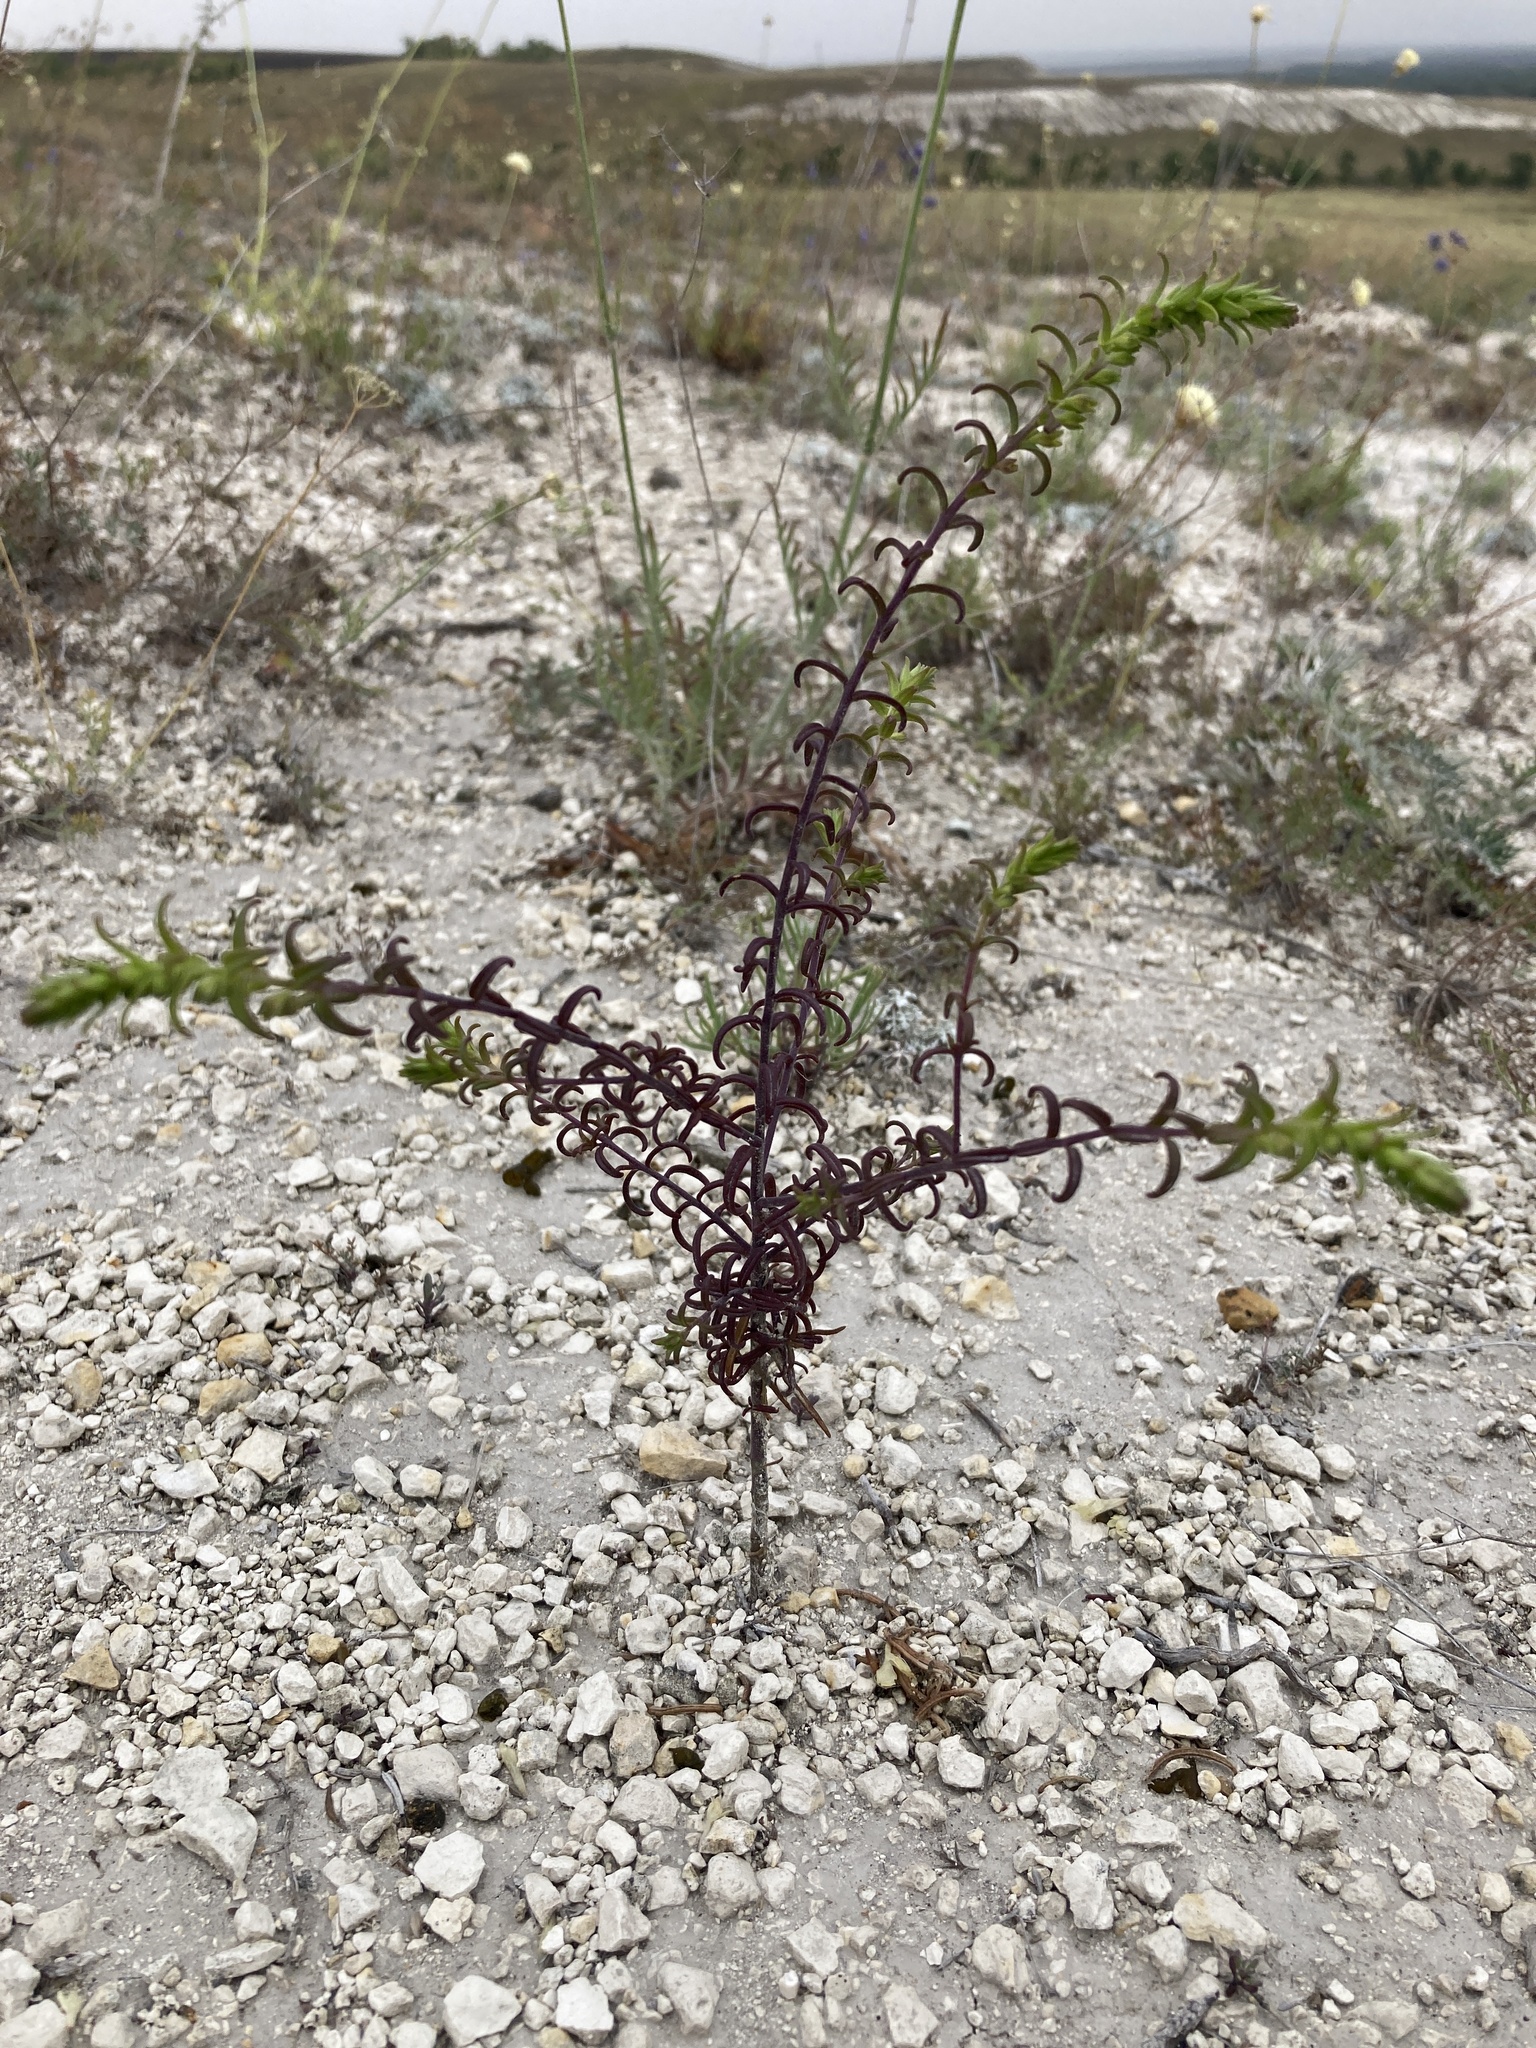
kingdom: Plantae
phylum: Tracheophyta
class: Magnoliopsida
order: Lamiales
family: Orobanchaceae
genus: Odontites
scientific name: Odontites luteus
